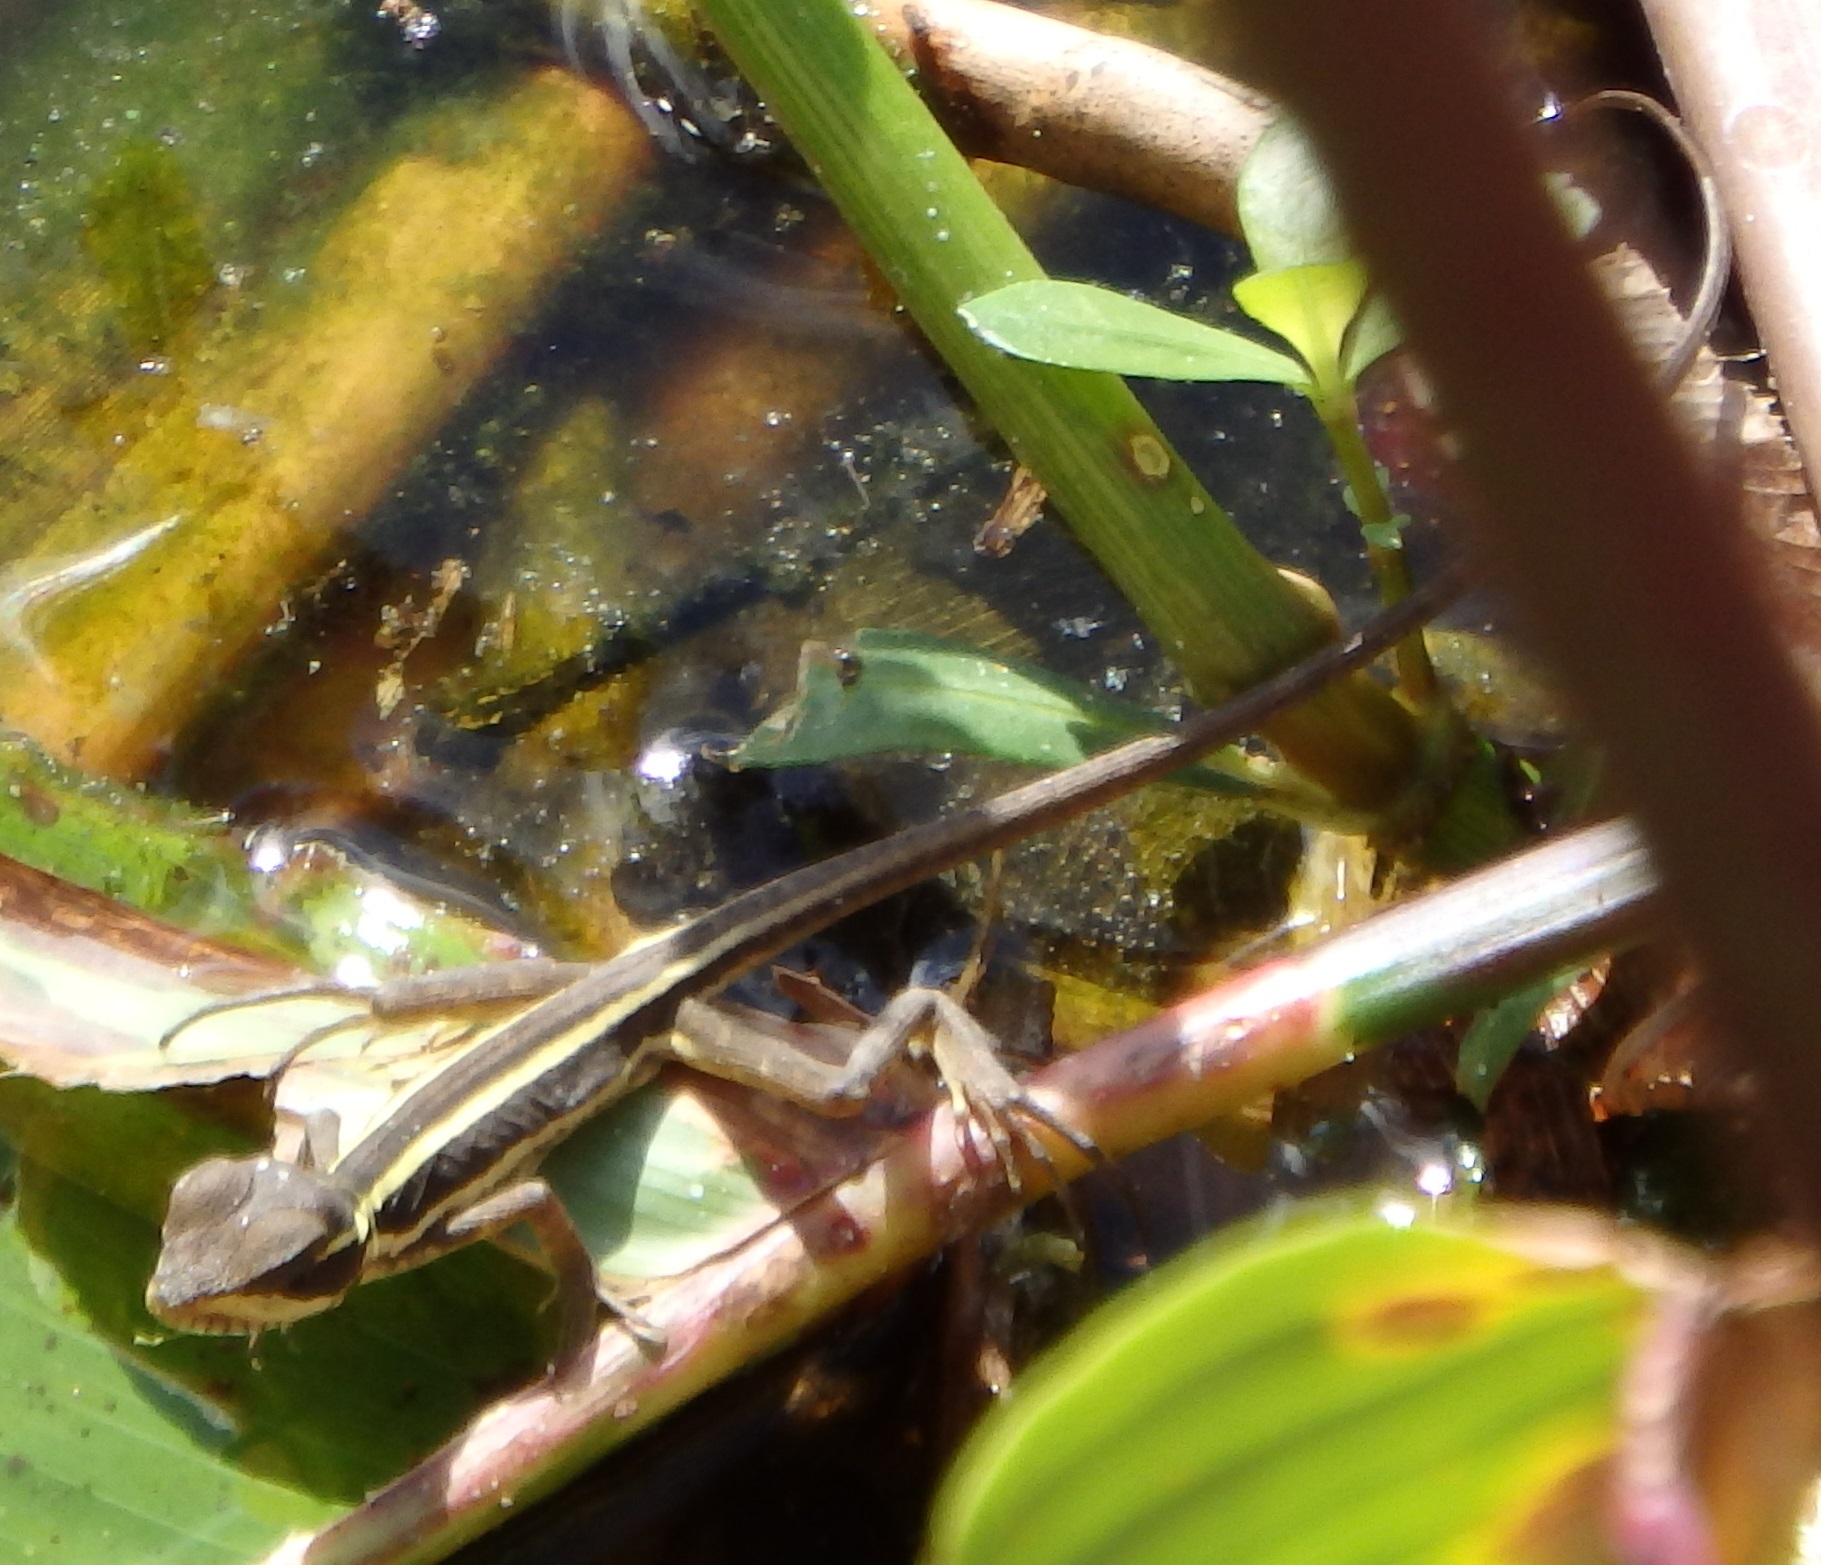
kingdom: Animalia
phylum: Chordata
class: Squamata
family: Corytophanidae
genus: Basiliscus
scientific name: Basiliscus vittatus
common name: Brown basilisk
